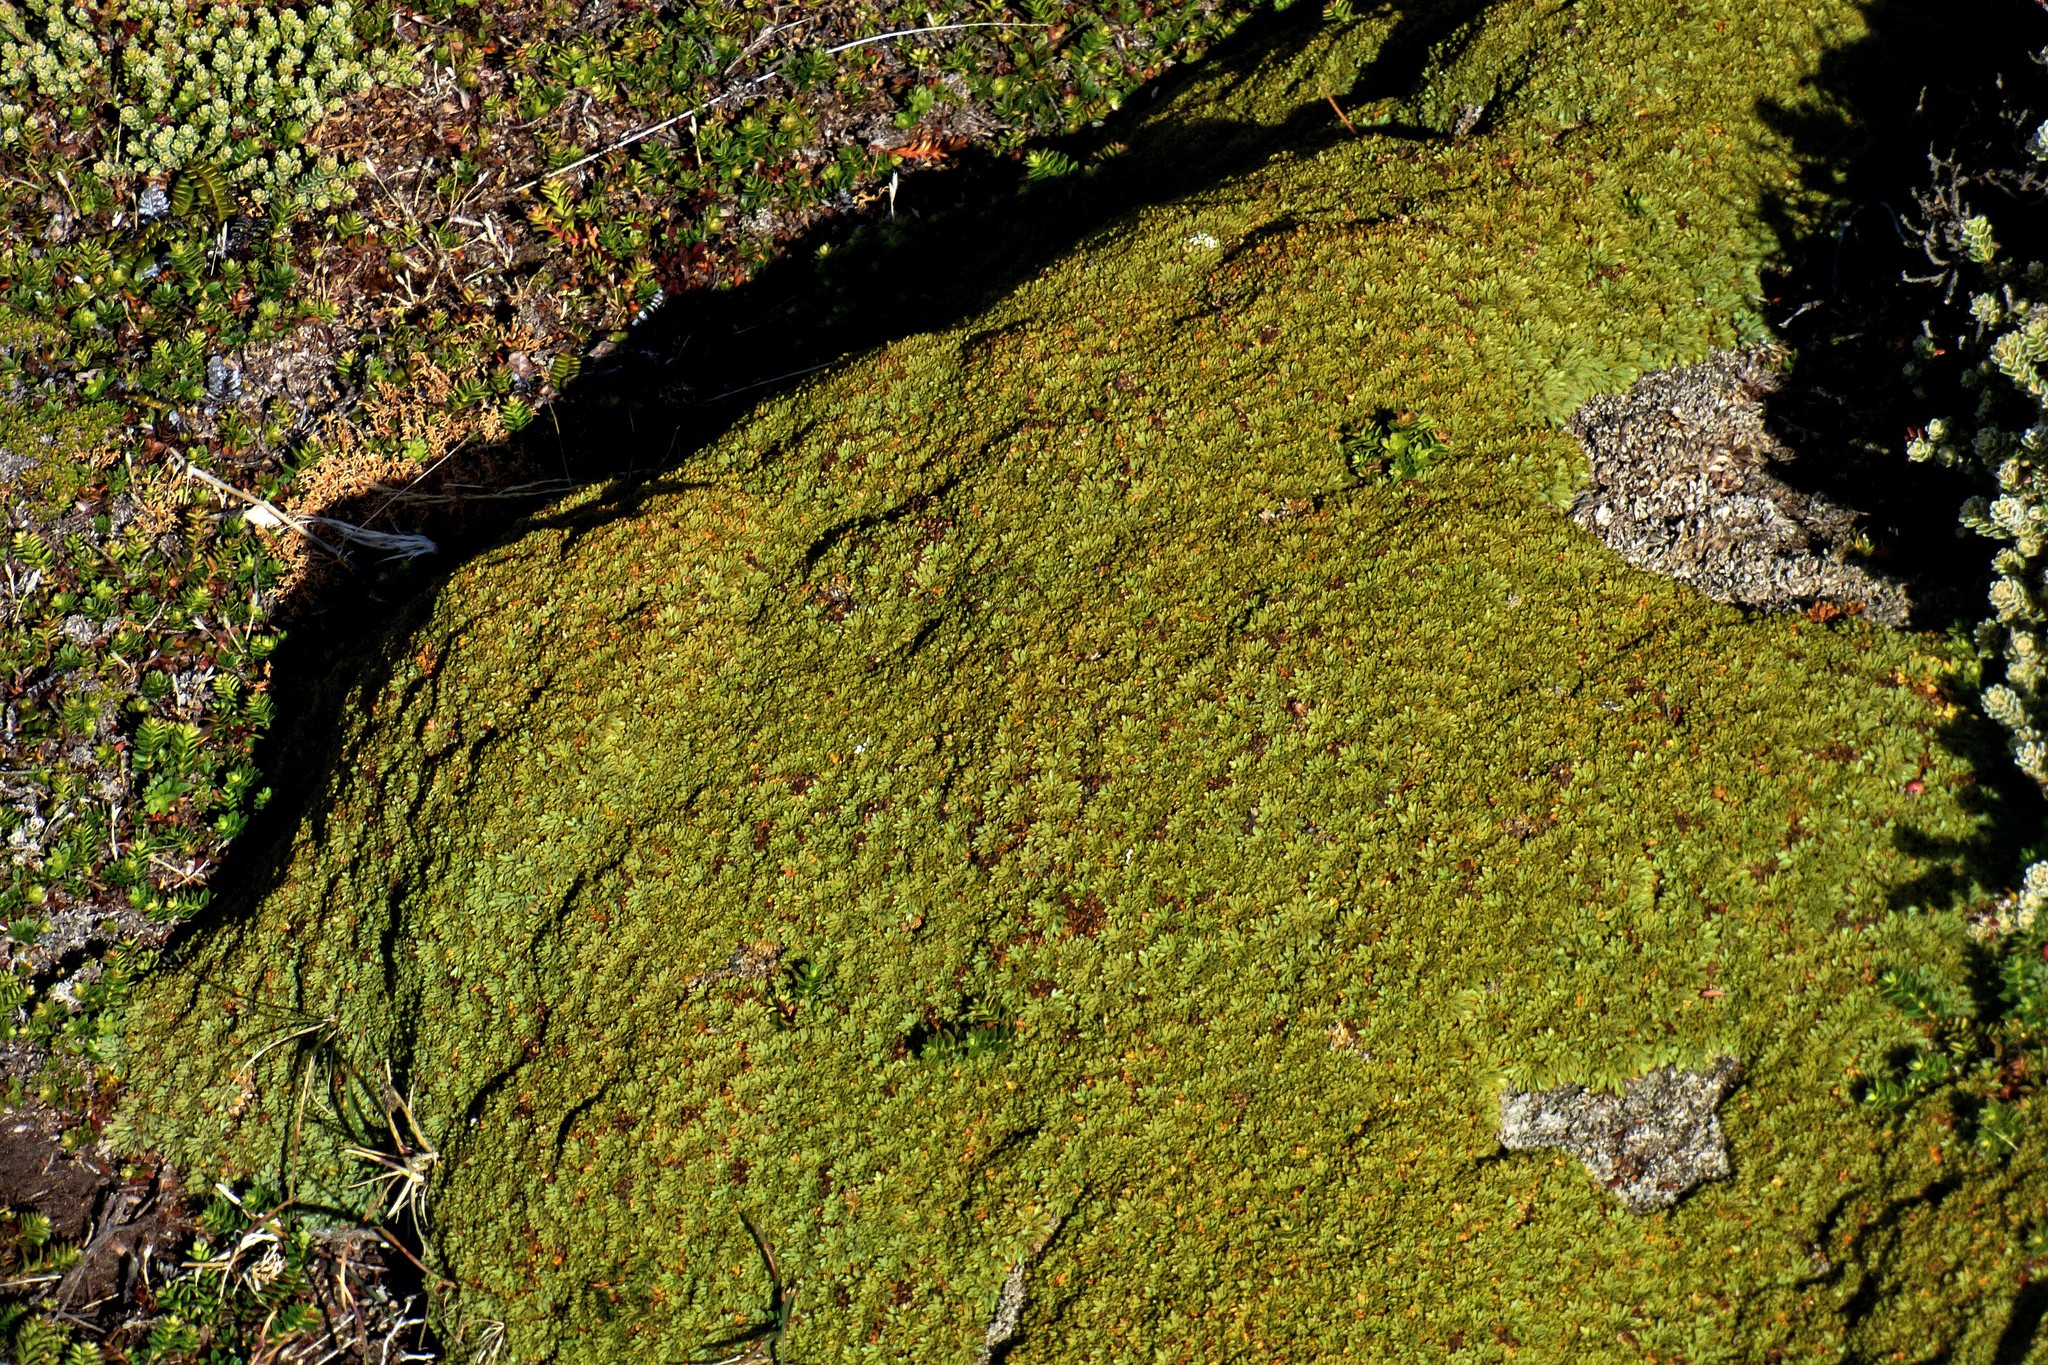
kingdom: Plantae
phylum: Tracheophyta
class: Magnoliopsida
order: Apiales
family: Apiaceae
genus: Bolax
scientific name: Bolax gummifera
